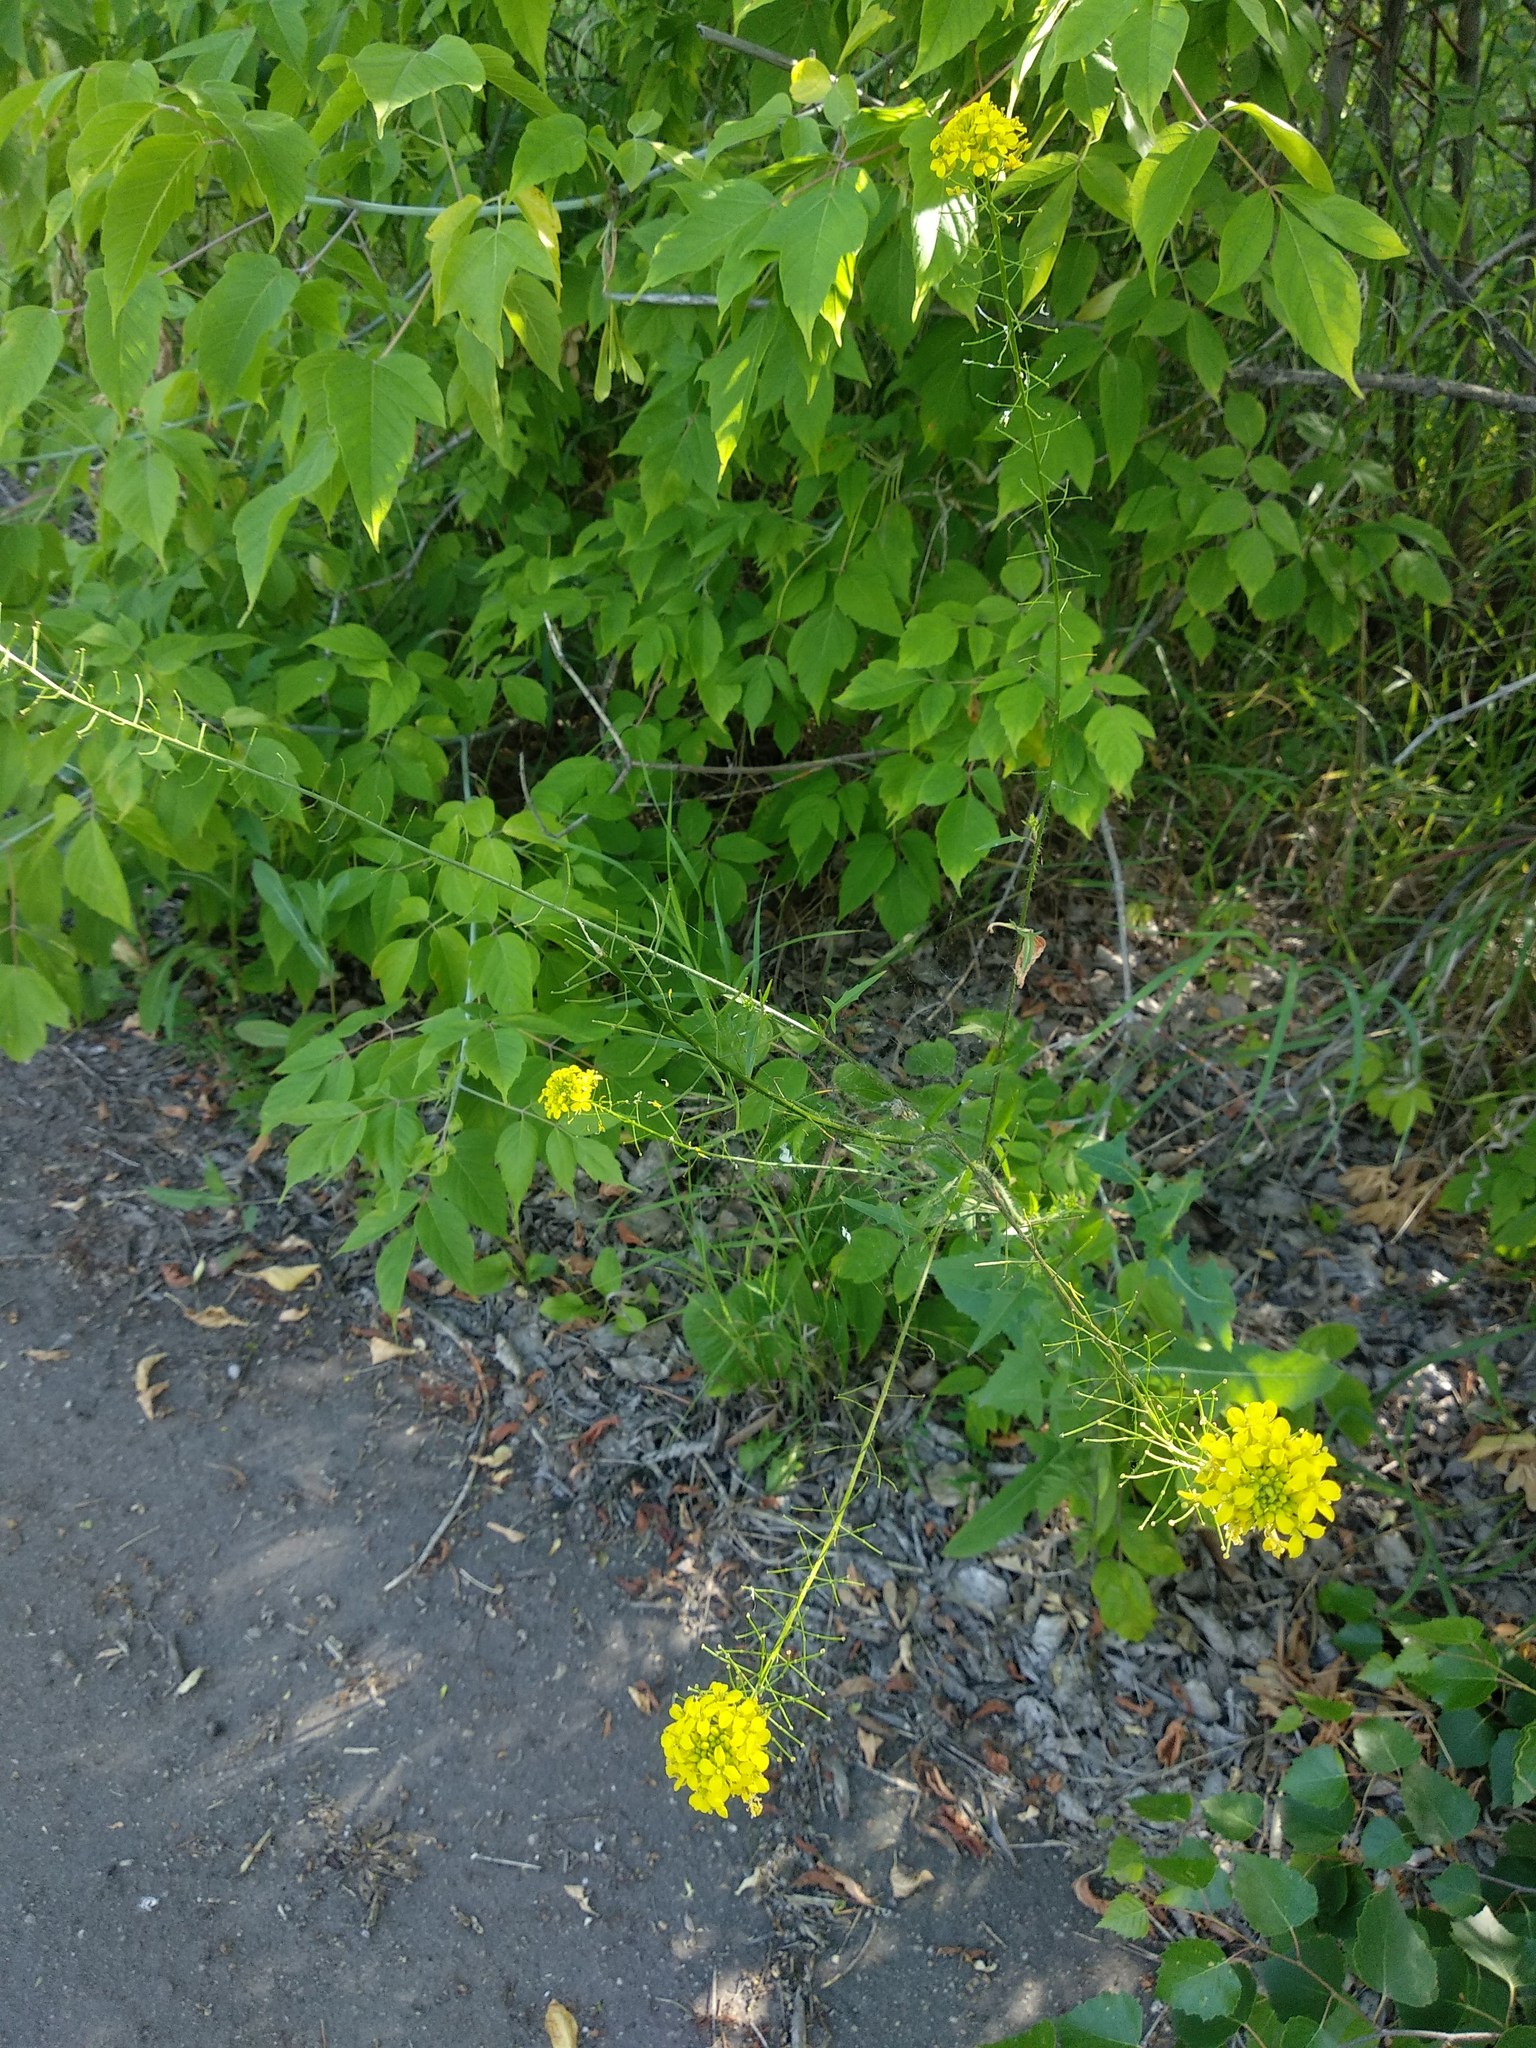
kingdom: Plantae
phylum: Tracheophyta
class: Magnoliopsida
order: Brassicales
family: Brassicaceae
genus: Sisymbrium
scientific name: Sisymbrium loeselii
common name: False london-rocket
